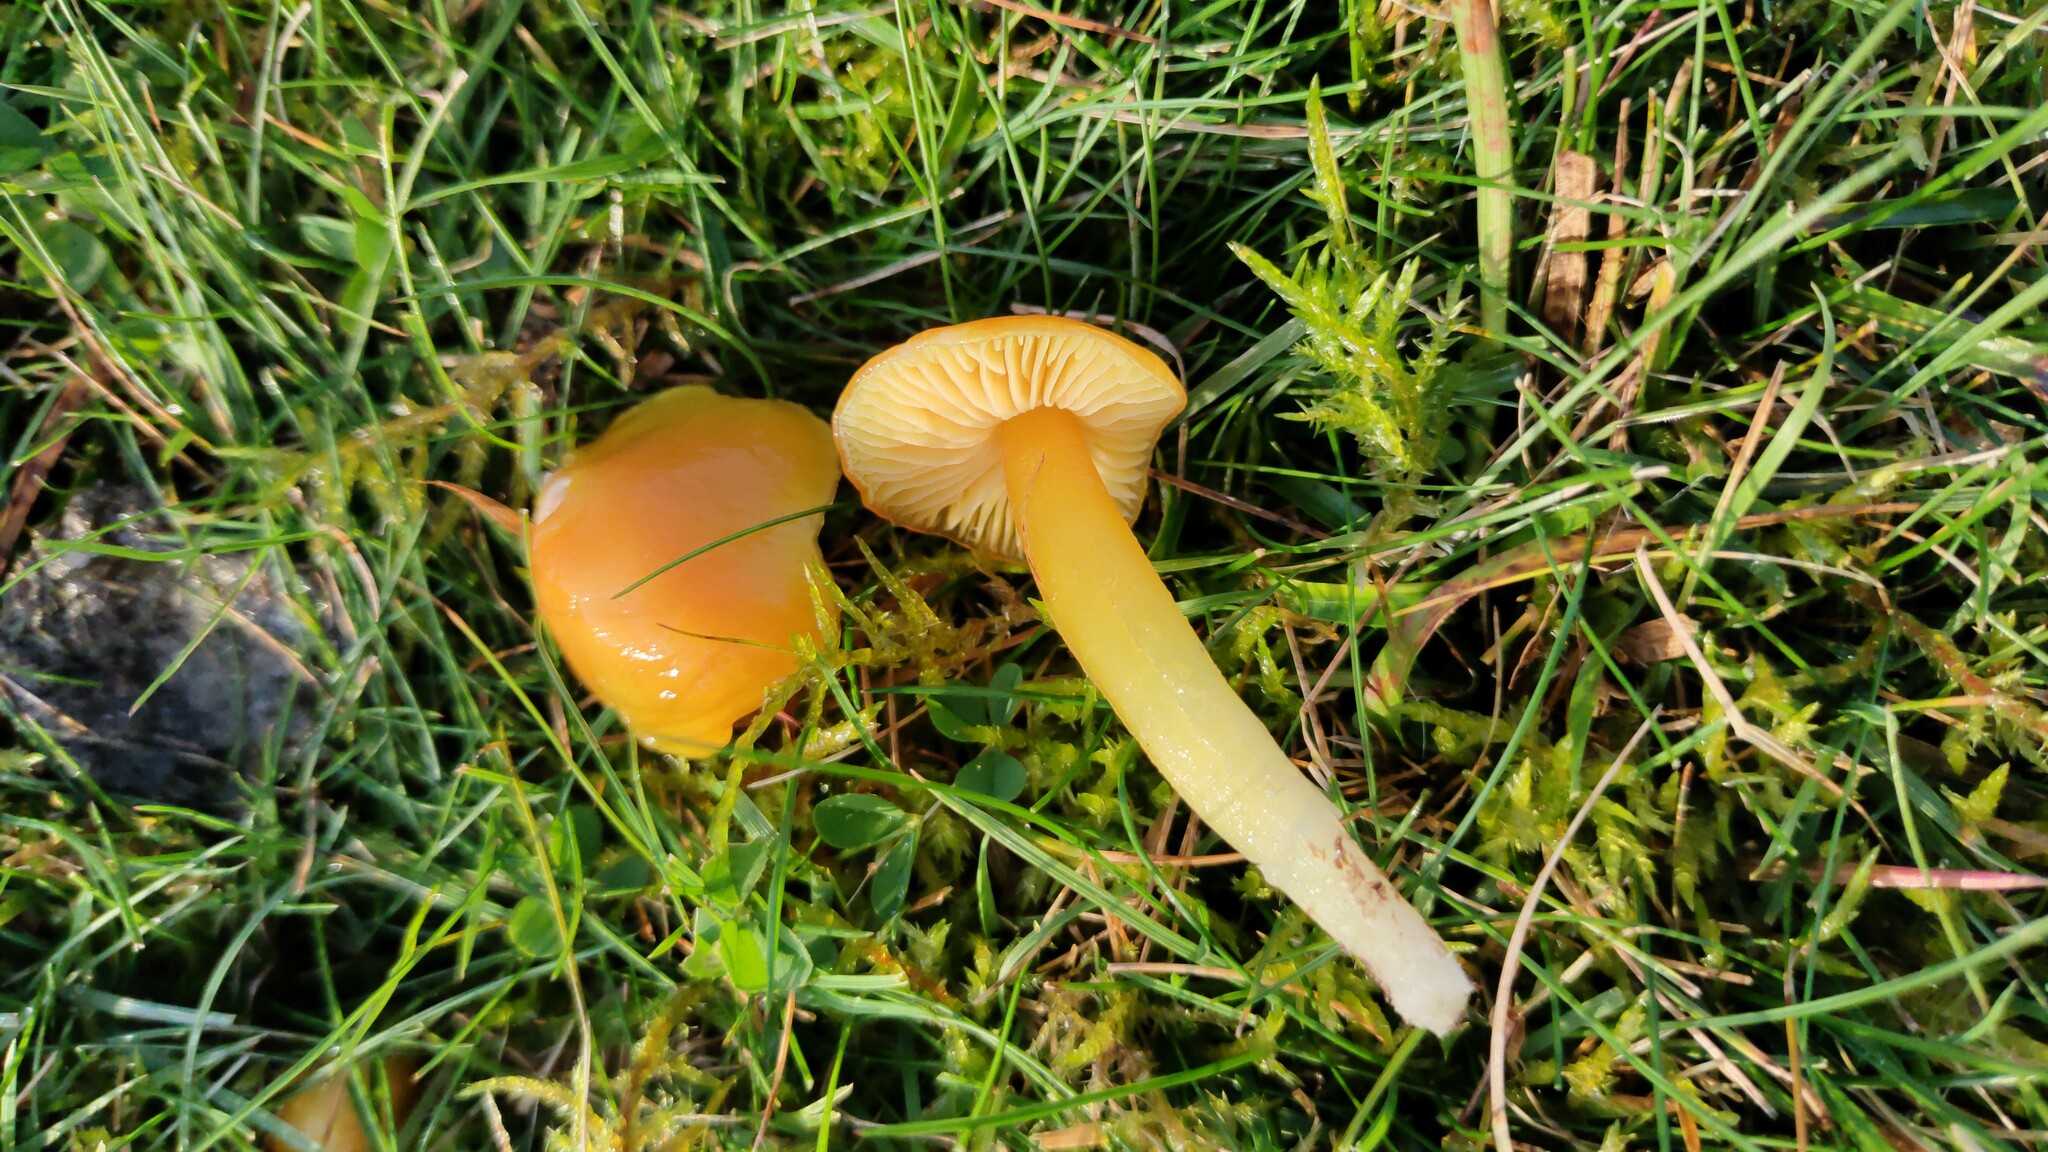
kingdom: Fungi
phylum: Basidiomycota
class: Agaricomycetes
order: Agaricales
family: Hygrophoraceae
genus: Hygrocybe
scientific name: Hygrocybe chlorophana
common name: Golden waxcap
